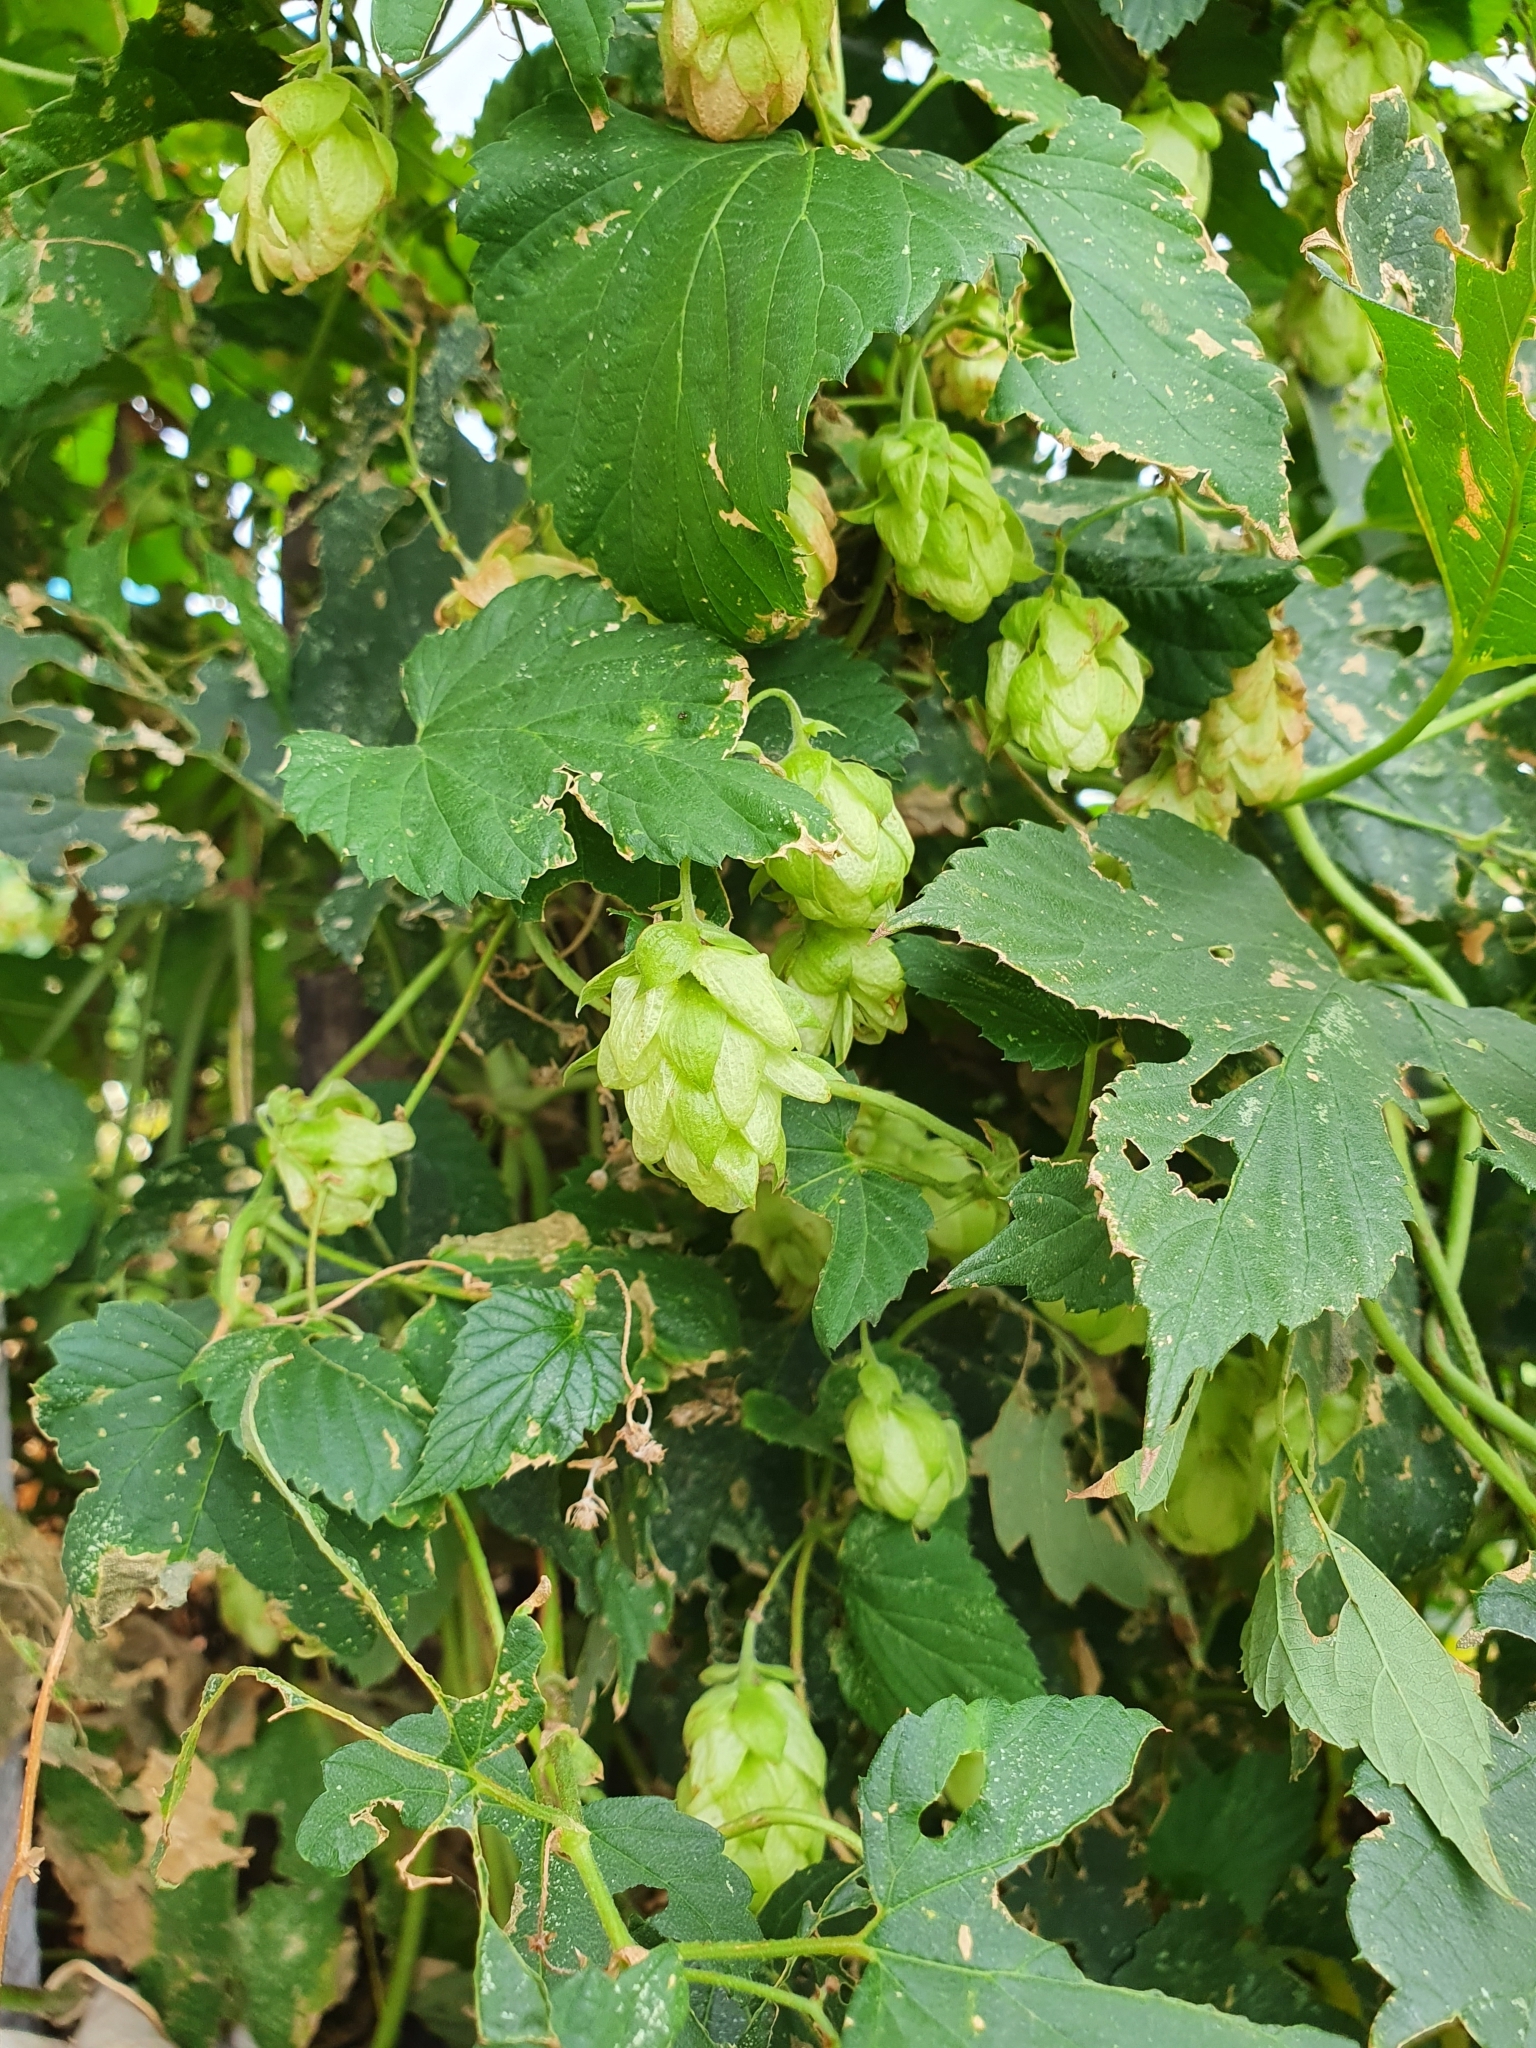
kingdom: Plantae
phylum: Tracheophyta
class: Magnoliopsida
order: Rosales
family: Cannabaceae
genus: Humulus
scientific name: Humulus lupulus
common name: Hop
